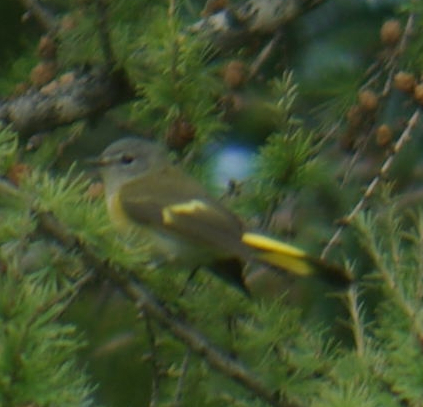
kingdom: Animalia
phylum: Chordata
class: Aves
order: Passeriformes
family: Parulidae
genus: Setophaga
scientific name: Setophaga ruticilla
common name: American redstart
